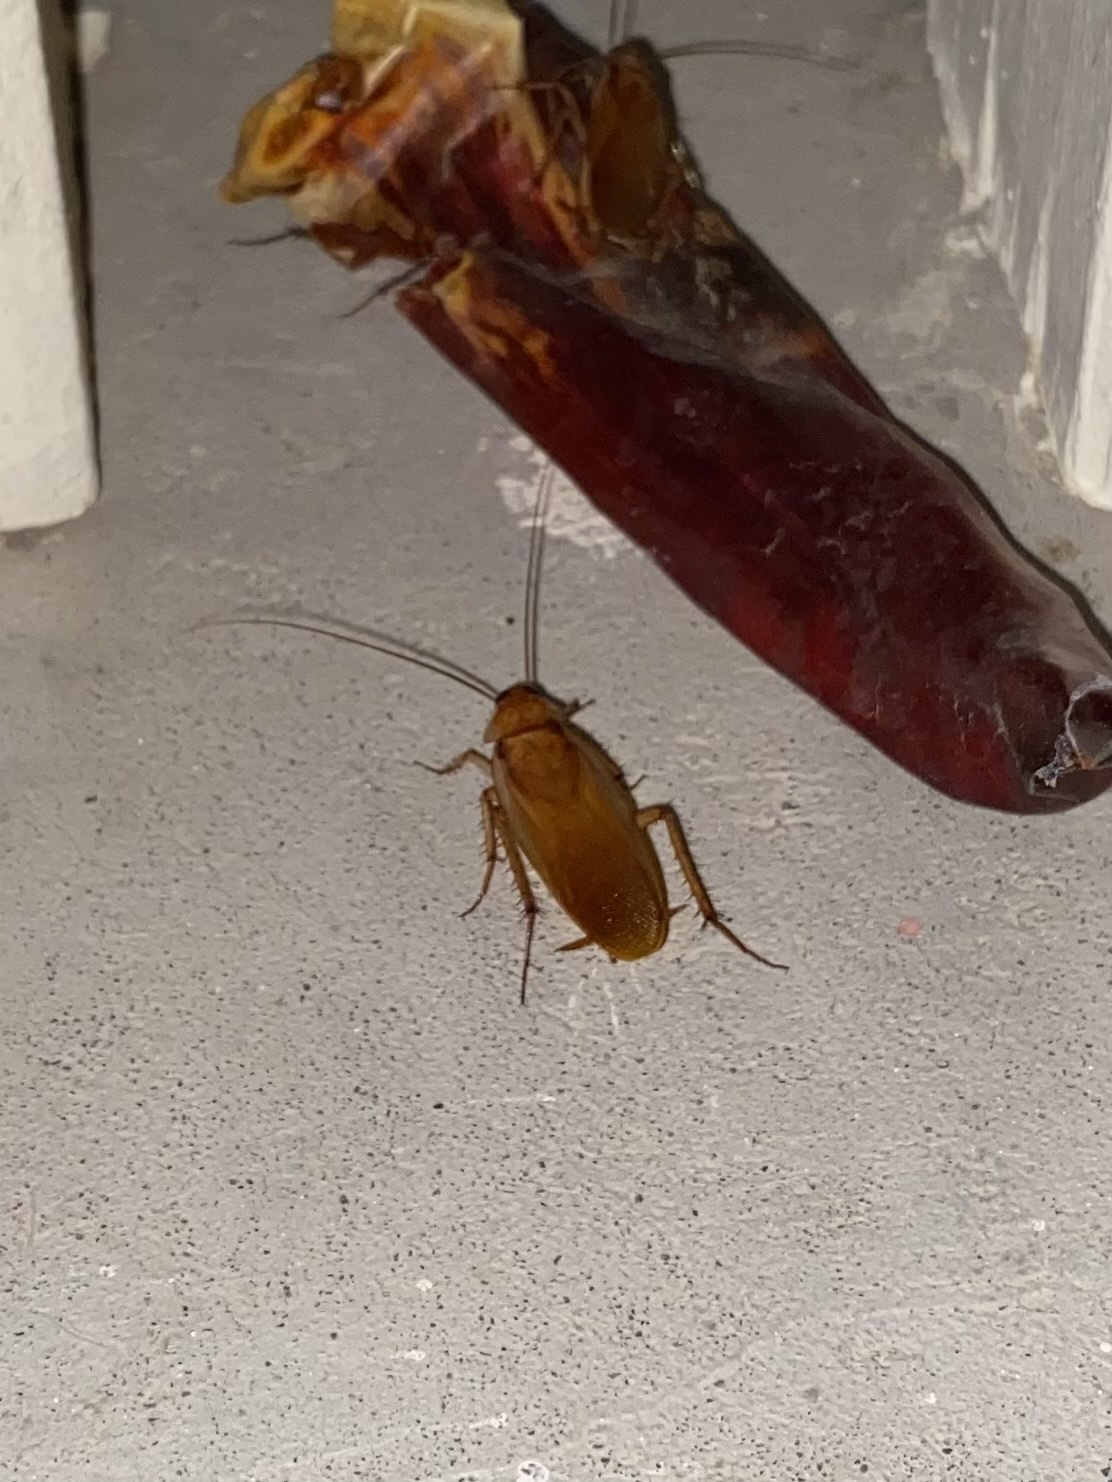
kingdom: Animalia
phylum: Arthropoda
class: Insecta
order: Blattodea
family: Blattidae
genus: Periplaneta
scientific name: Periplaneta lateralis
